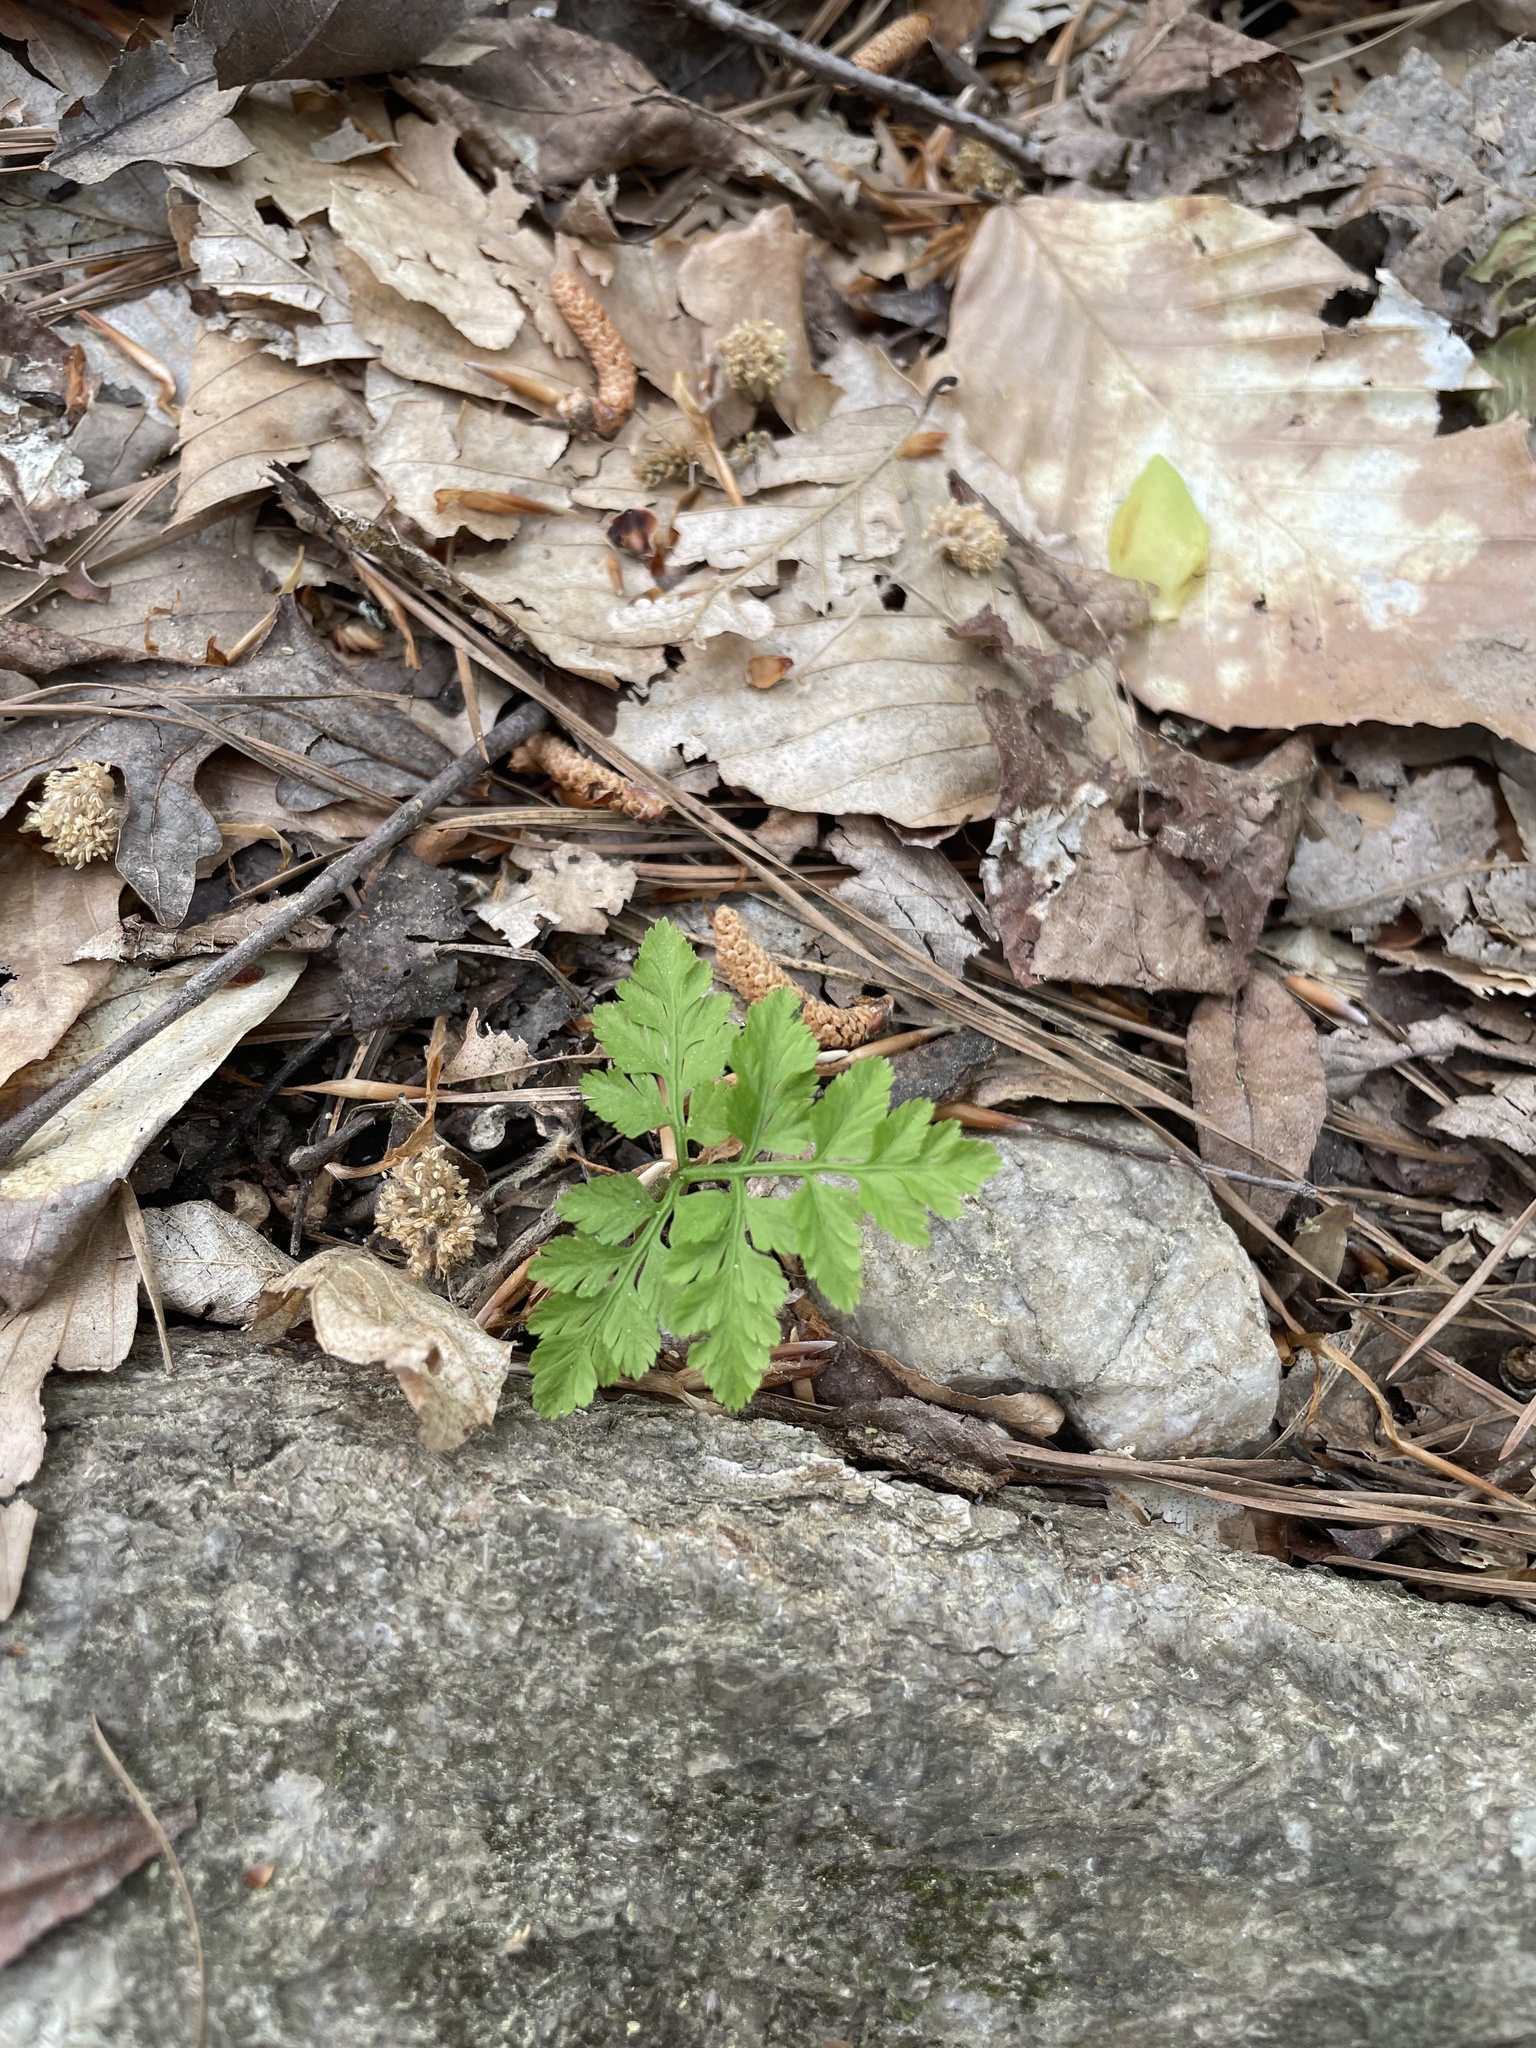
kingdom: Plantae
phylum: Tracheophyta
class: Polypodiopsida
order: Ophioglossales
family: Ophioglossaceae
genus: Botrypus
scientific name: Botrypus virginianus
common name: Common grapefern
